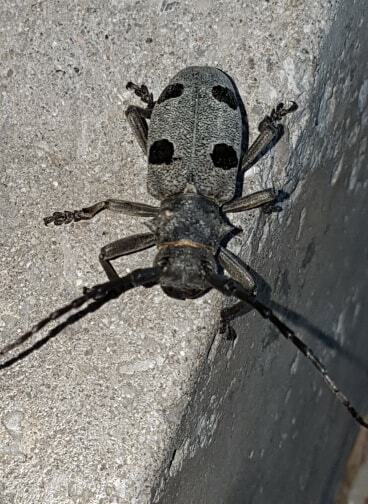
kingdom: Animalia
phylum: Arthropoda
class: Insecta
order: Coleoptera
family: Cerambycidae
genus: Morimus
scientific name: Morimus funereus
